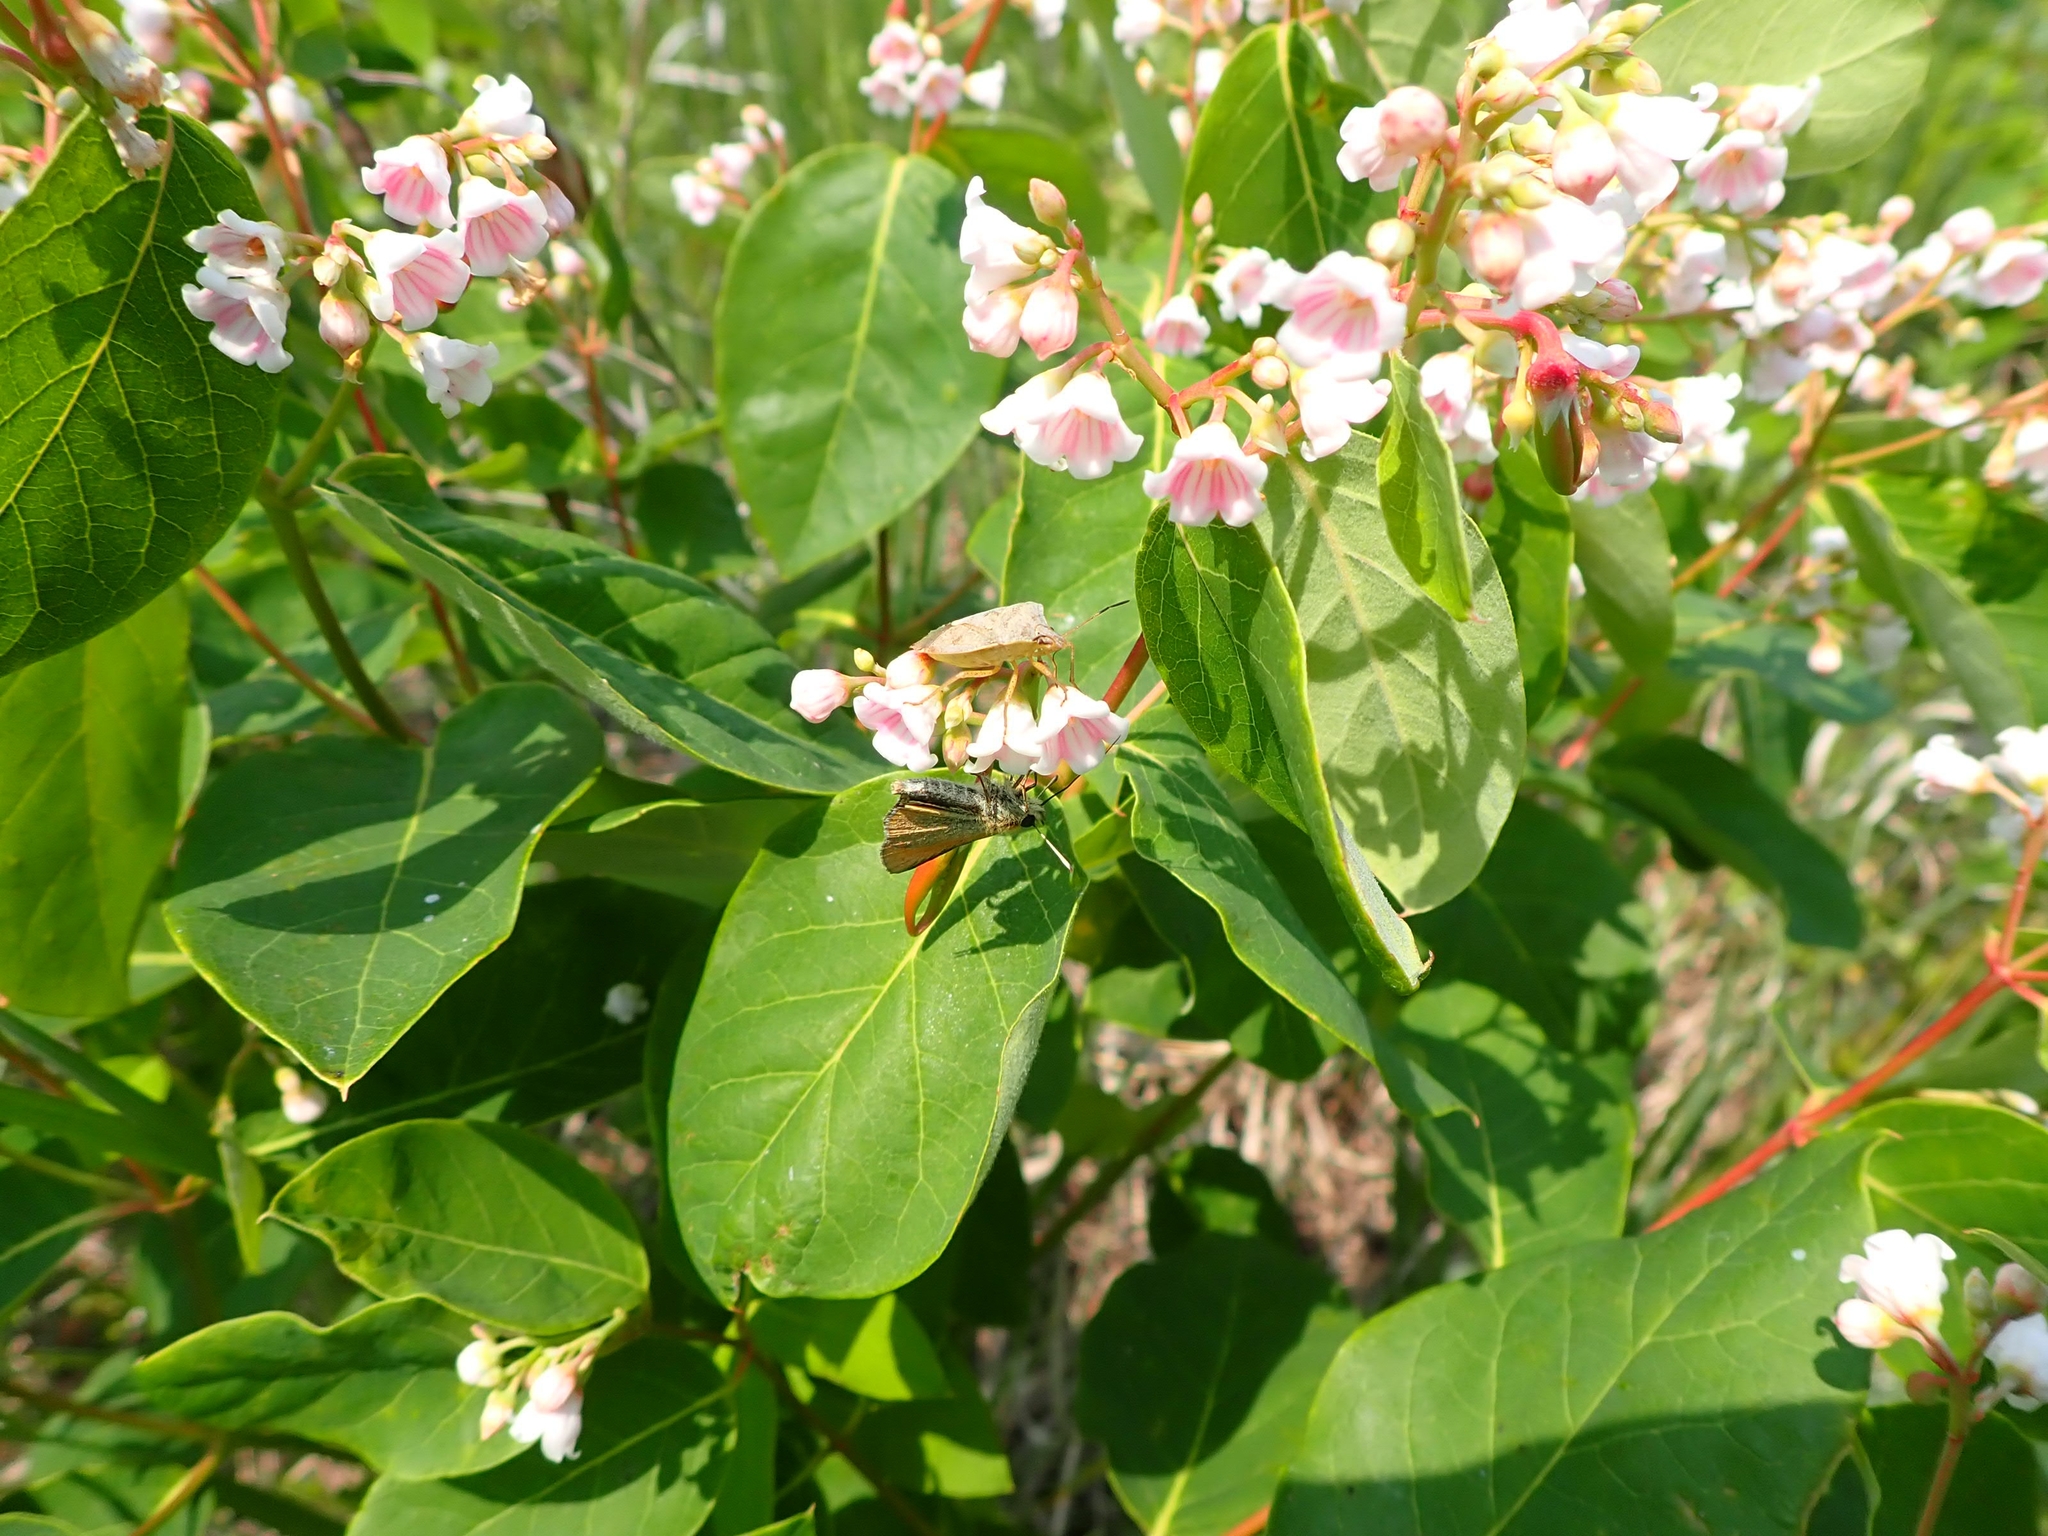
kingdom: Plantae
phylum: Tracheophyta
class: Magnoliopsida
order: Gentianales
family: Apocynaceae
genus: Apocynum
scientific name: Apocynum androsaemifolium
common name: Spreading dogbane
